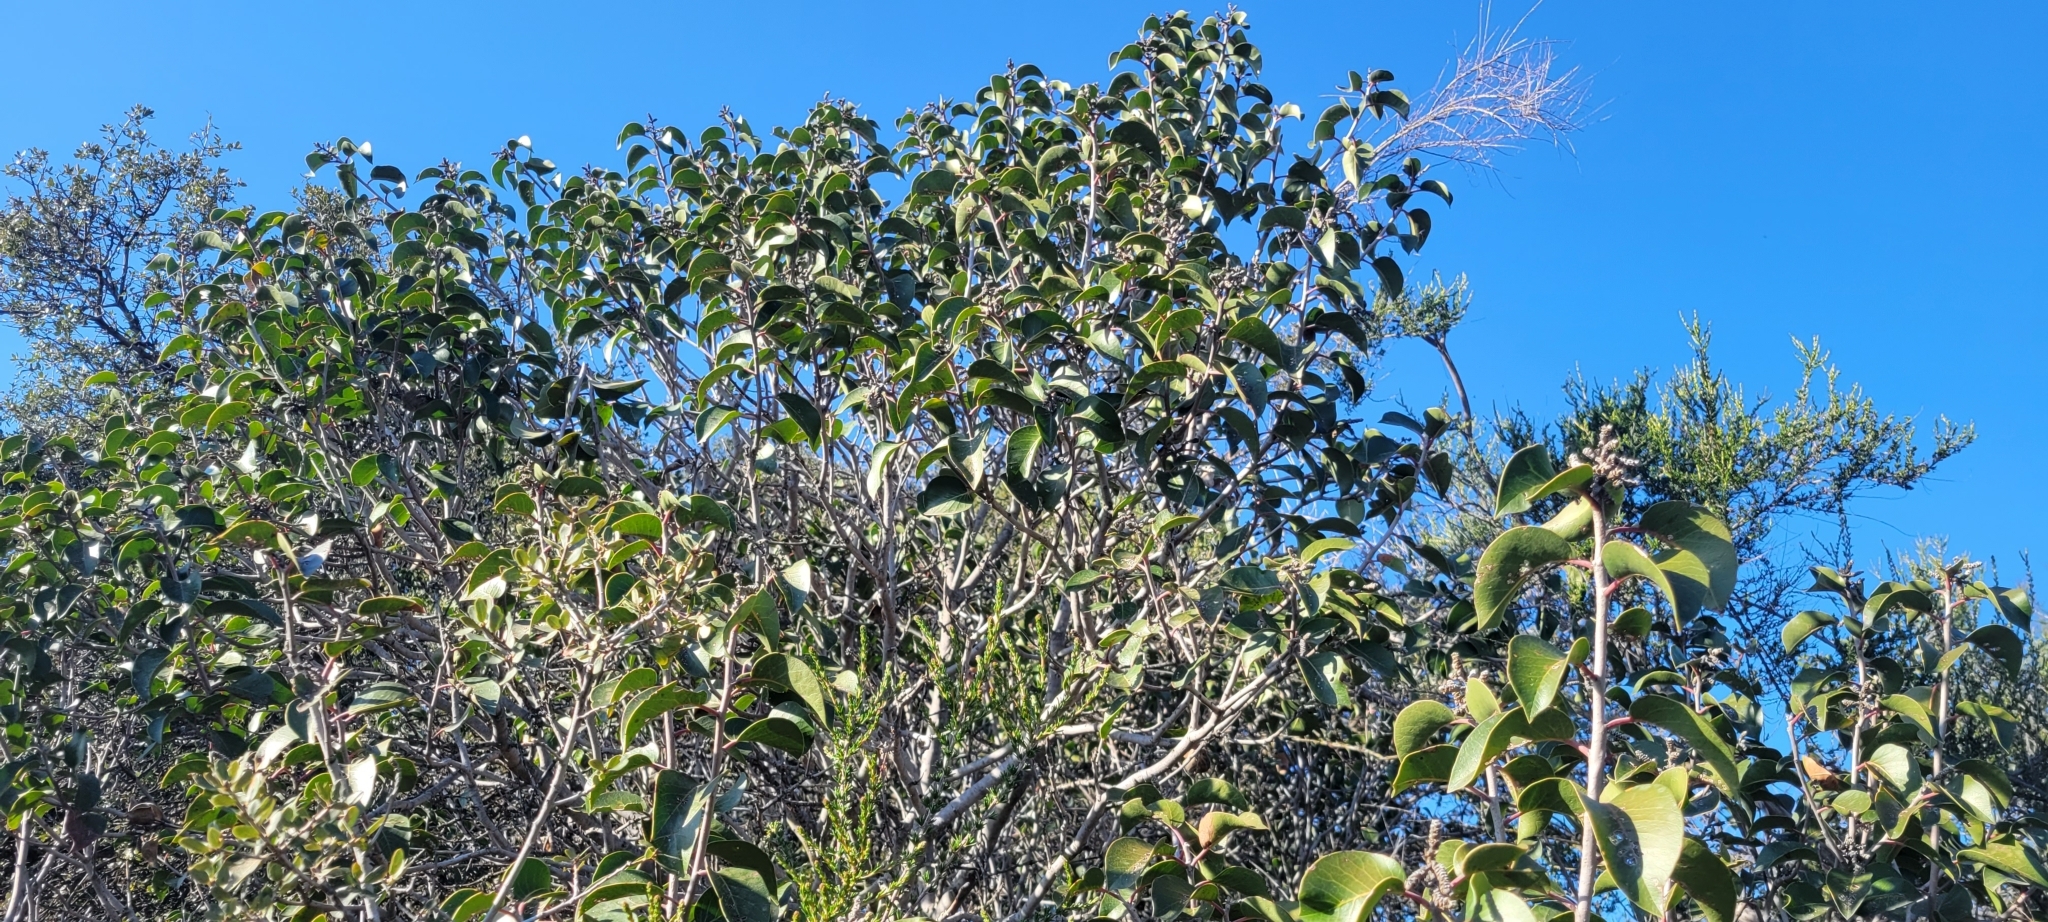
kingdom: Plantae
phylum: Tracheophyta
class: Magnoliopsida
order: Sapindales
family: Anacardiaceae
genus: Rhus
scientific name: Rhus ovata
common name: Sugar sumac
